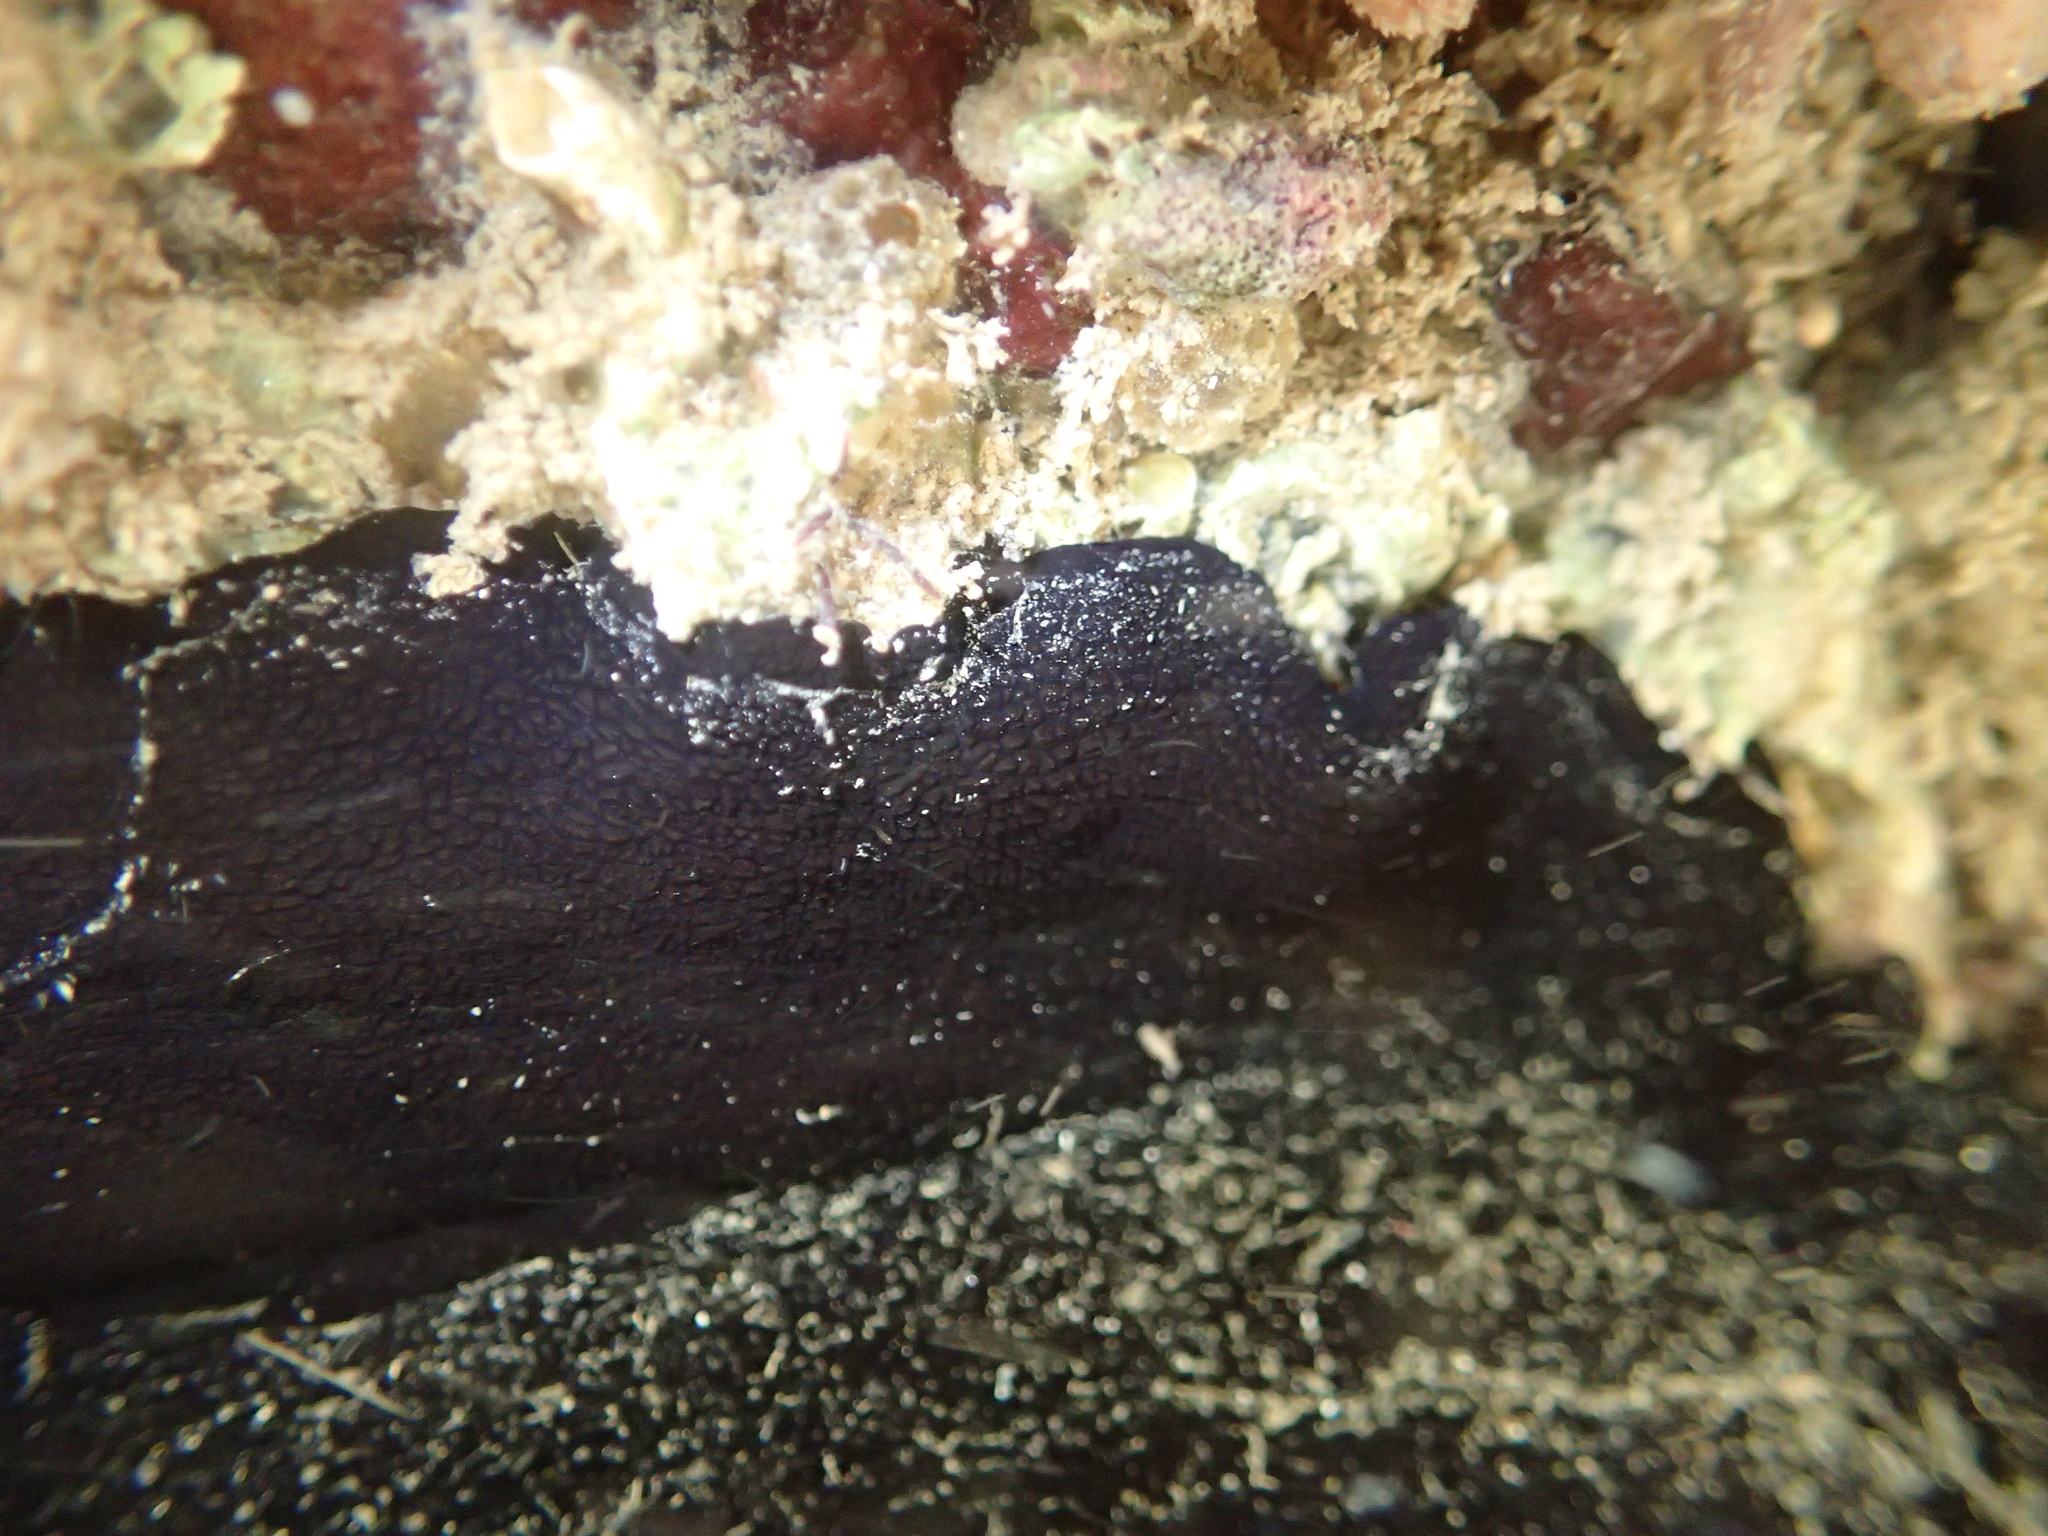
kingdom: Animalia
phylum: Mollusca
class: Gastropoda
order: Lepetellida
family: Fissurellidae
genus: Scutus
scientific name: Scutus breviculus
